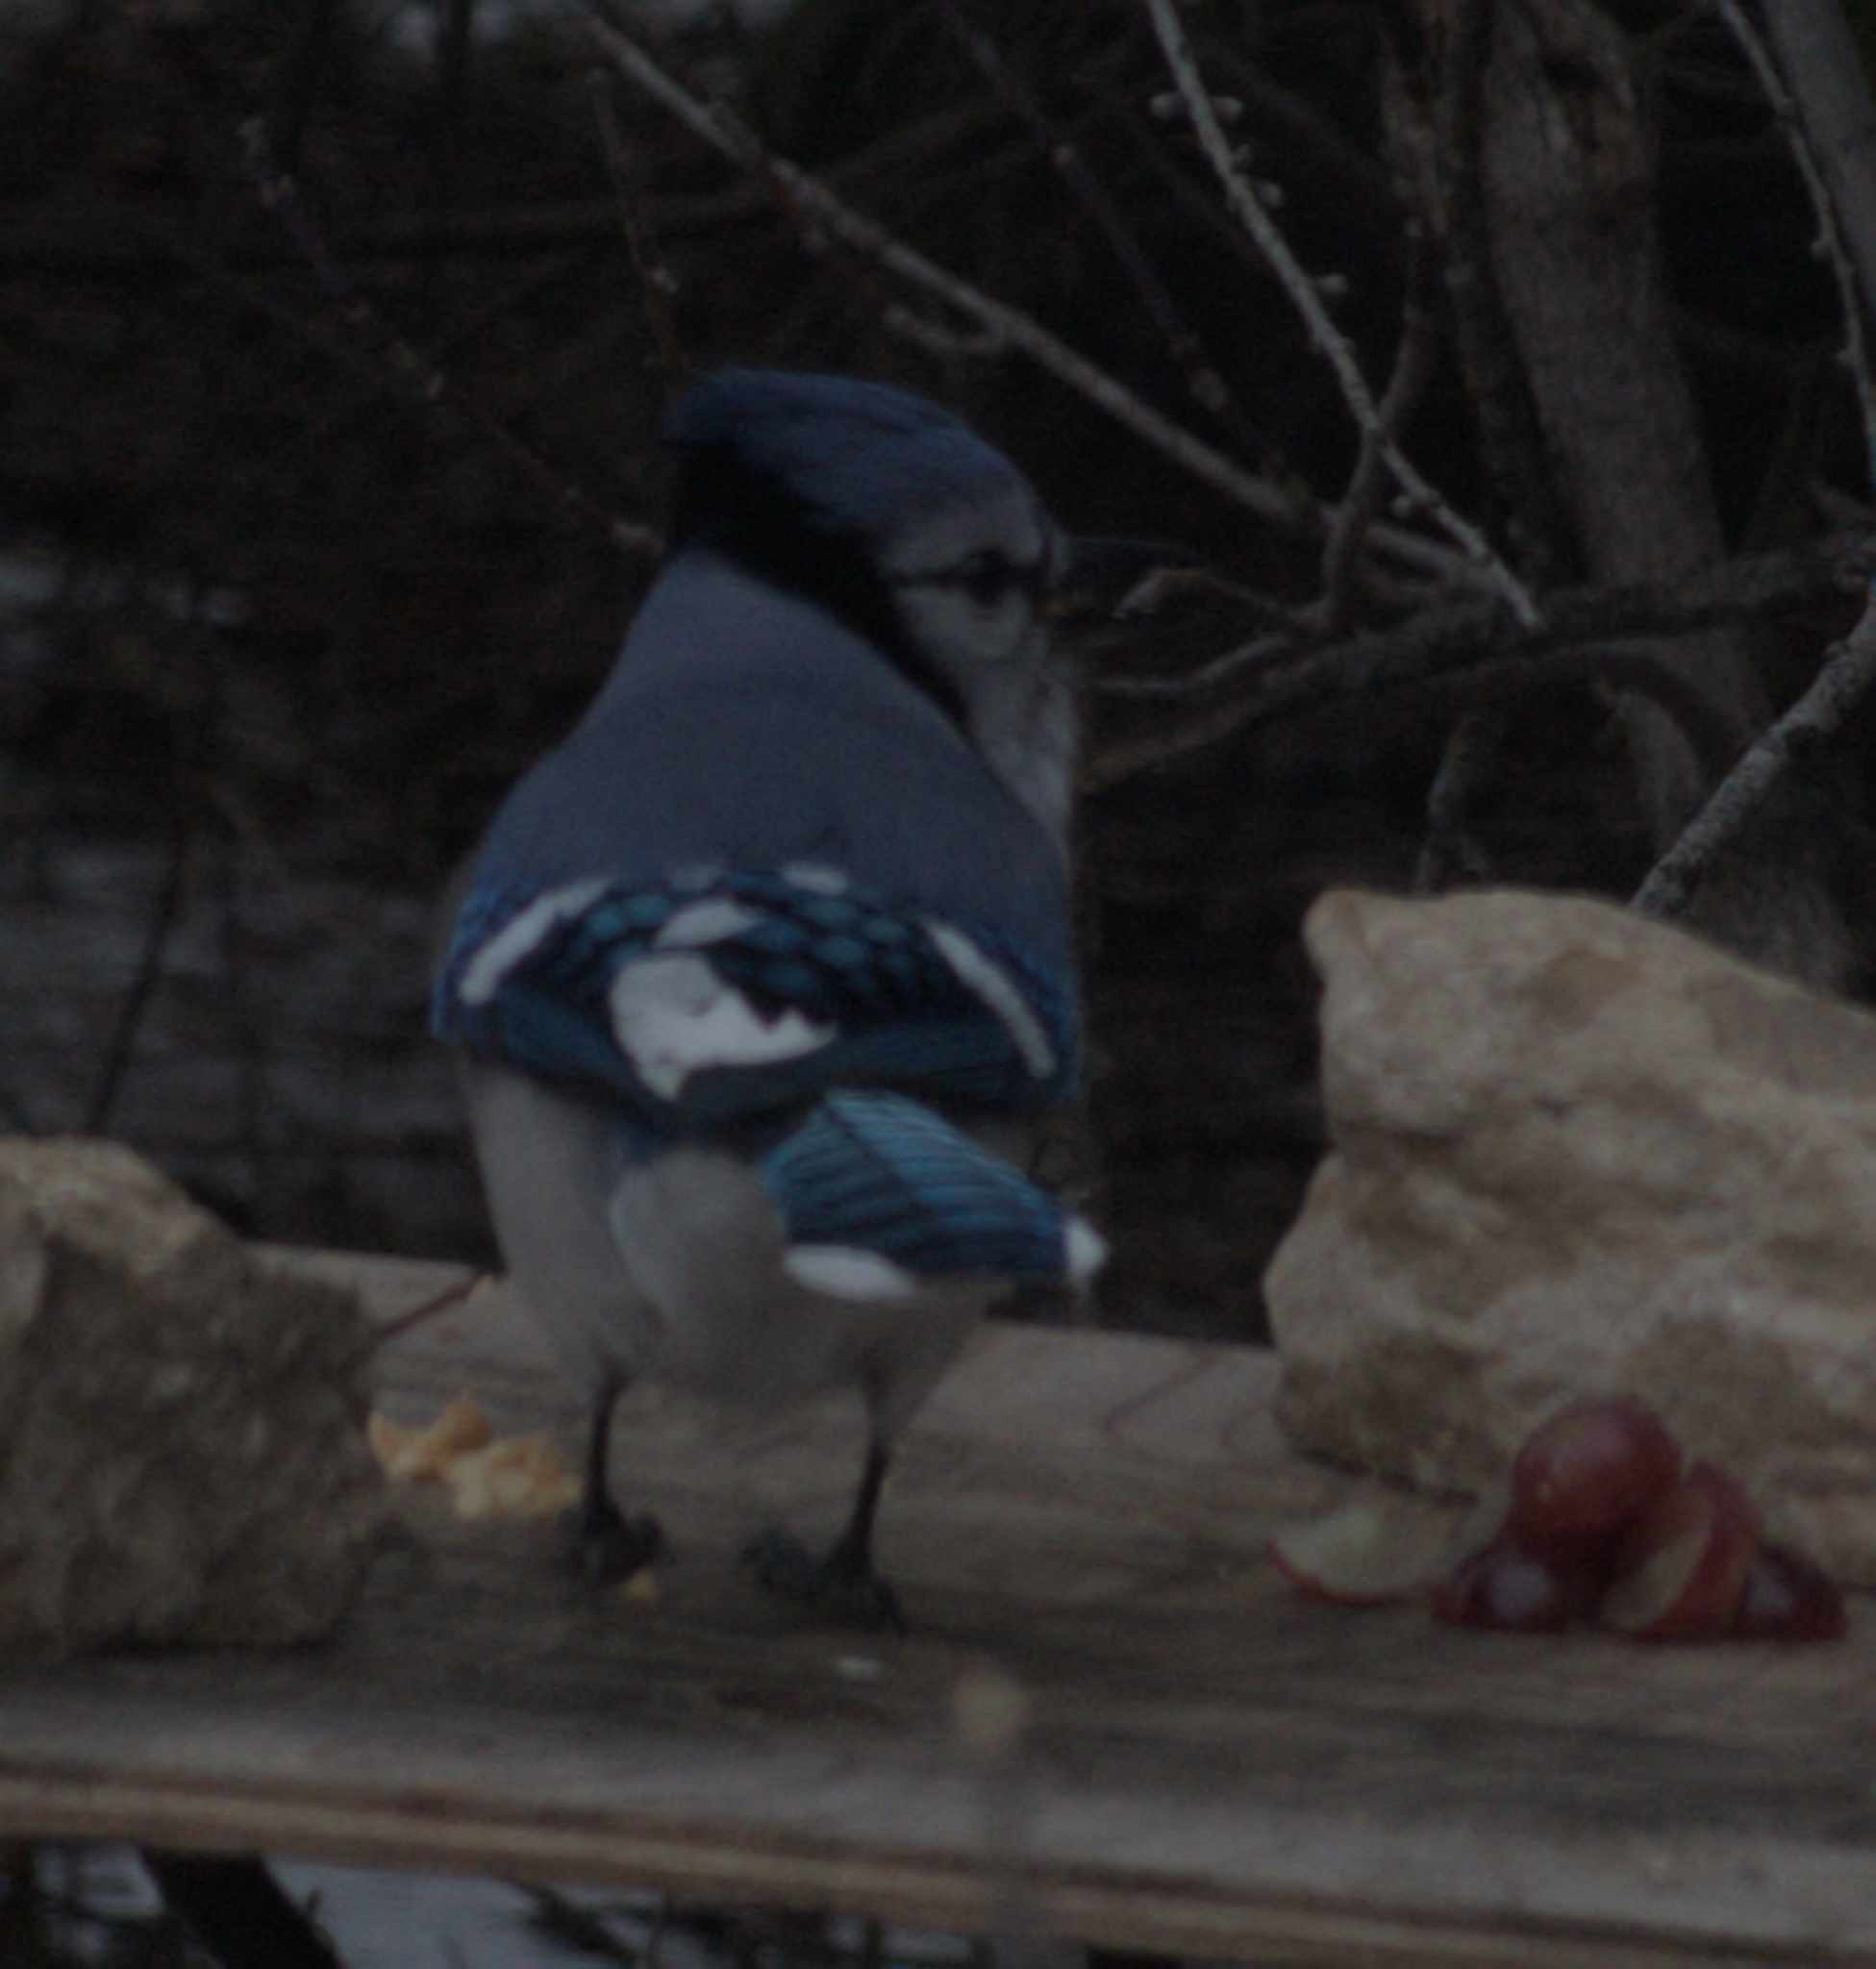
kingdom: Animalia
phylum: Chordata
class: Aves
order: Passeriformes
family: Corvidae
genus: Cyanocitta
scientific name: Cyanocitta cristata
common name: Blue jay
